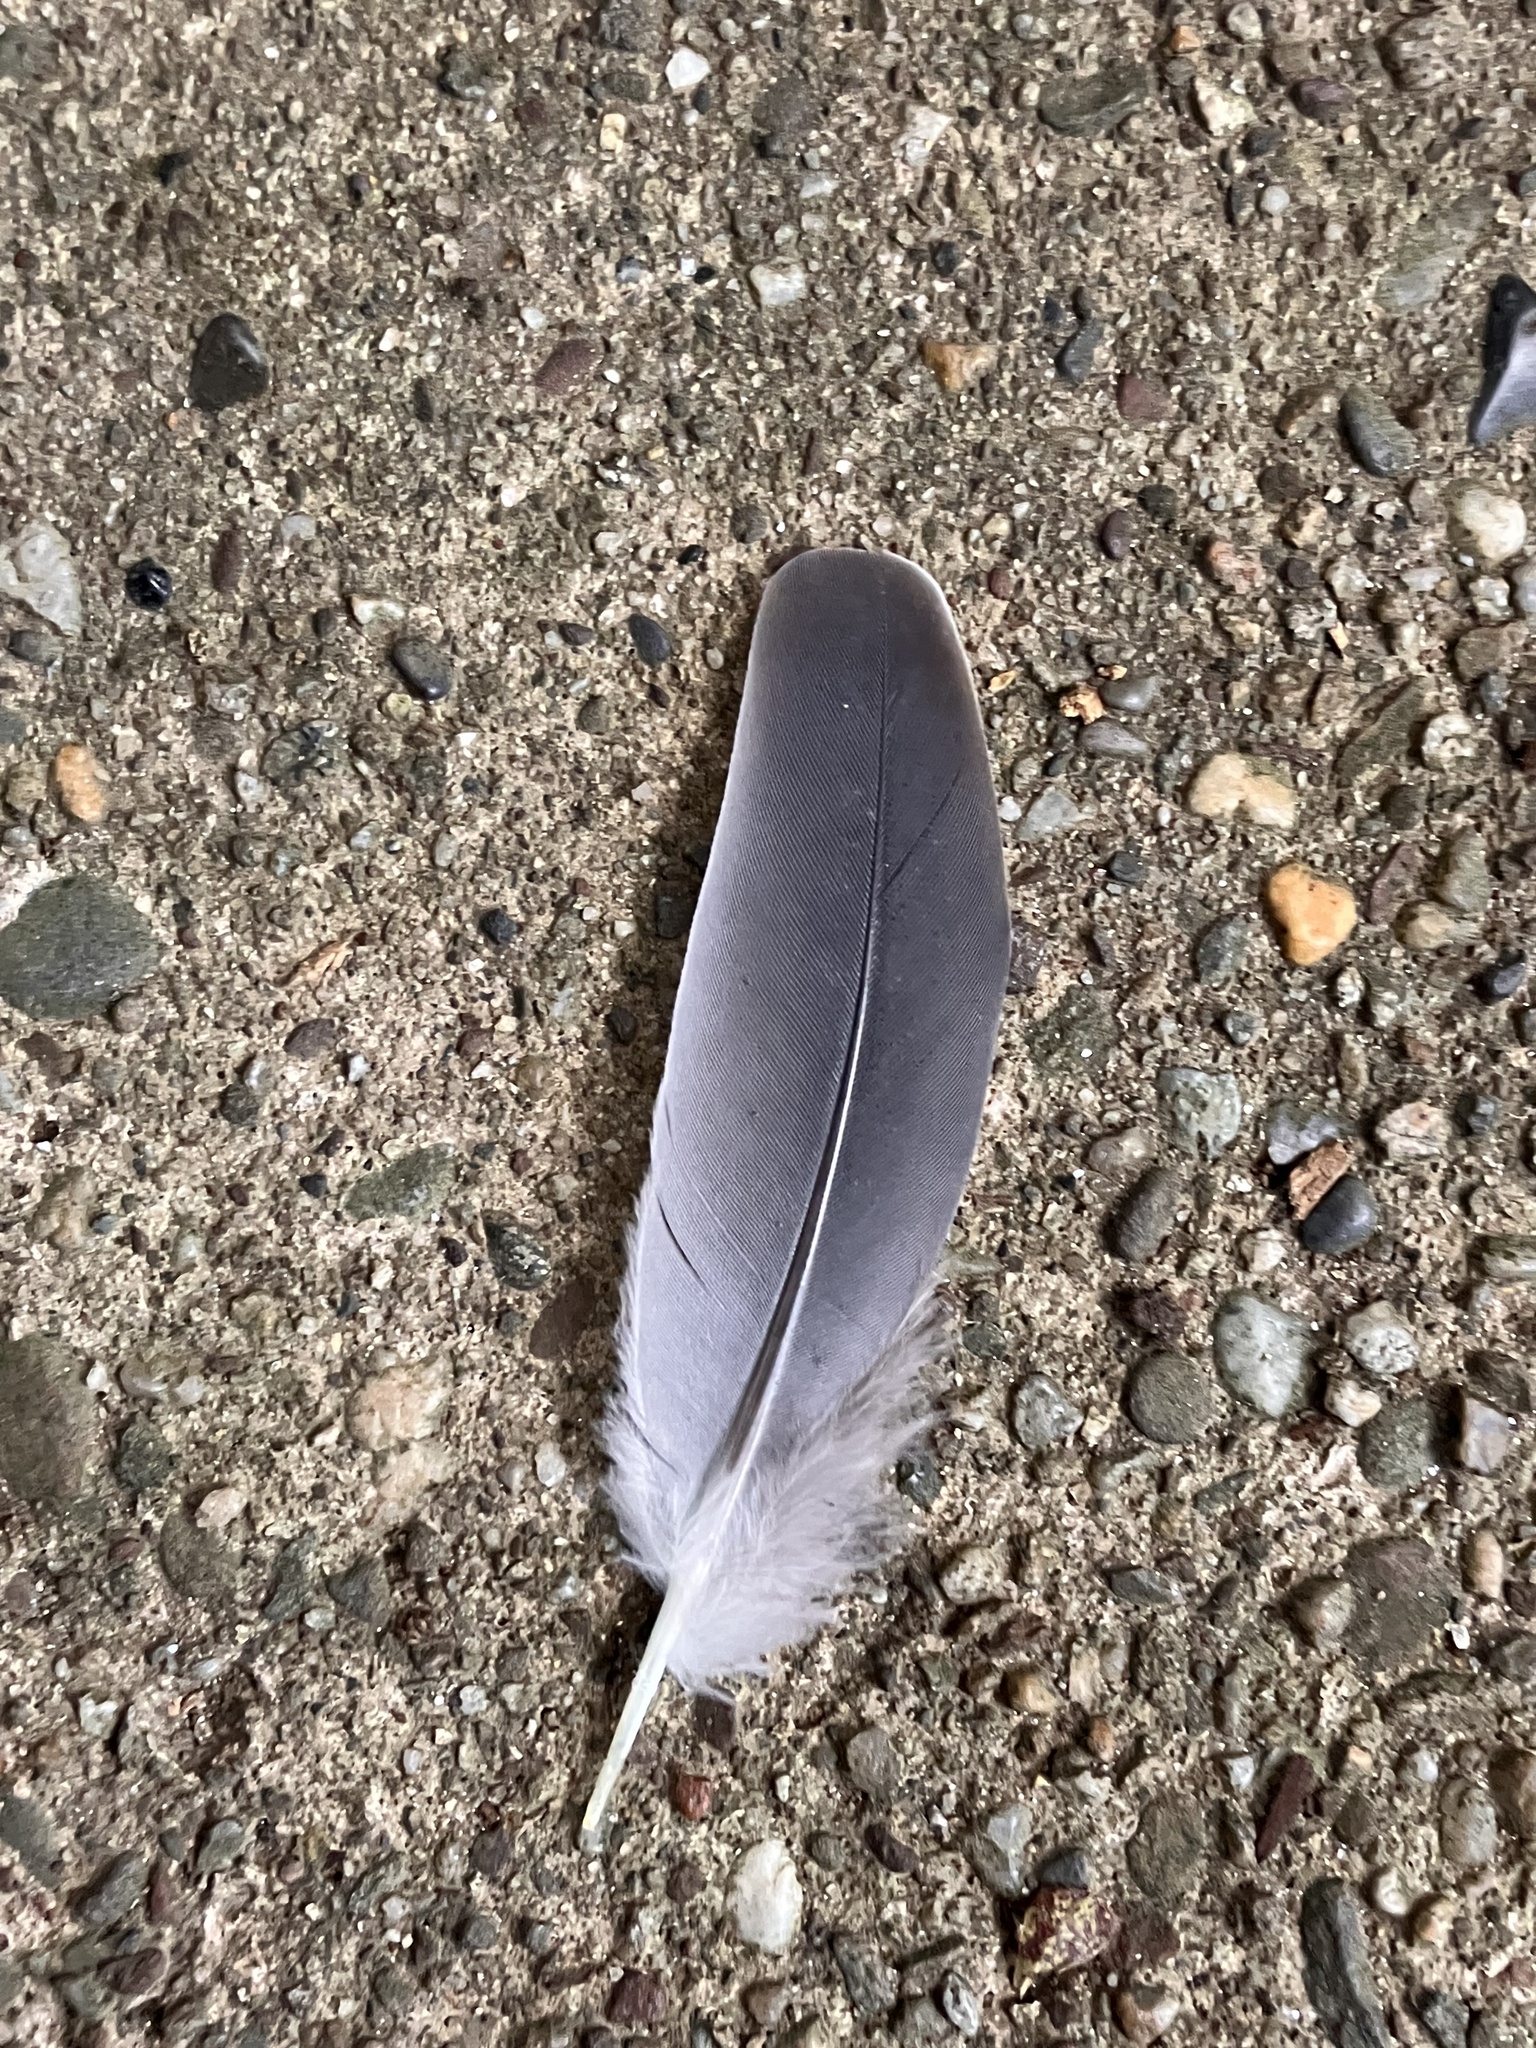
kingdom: Animalia
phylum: Chordata
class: Aves
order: Columbiformes
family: Columbidae
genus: Zenaida
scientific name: Zenaida macroura
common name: Mourning dove
